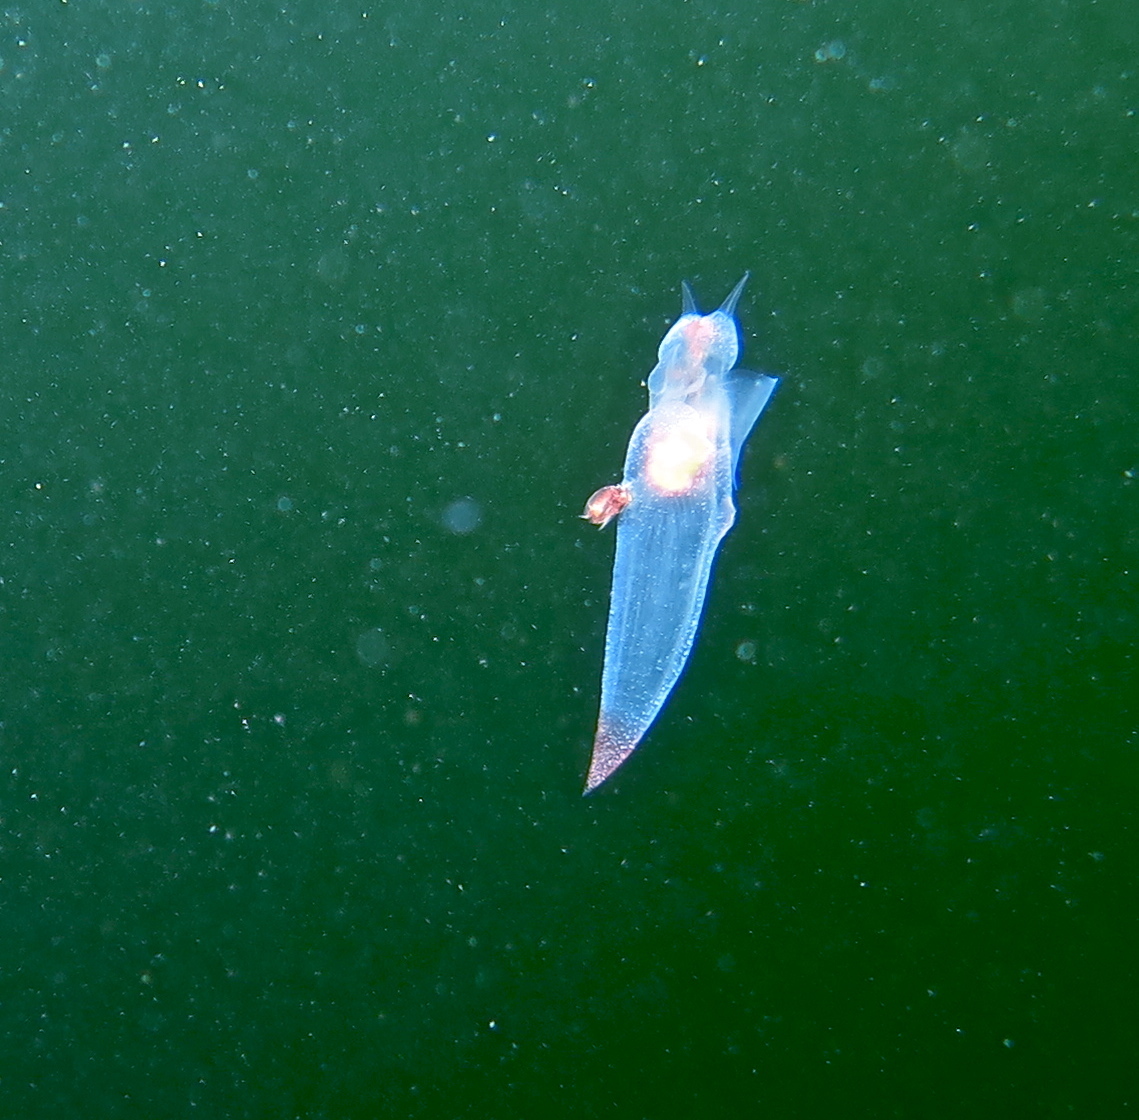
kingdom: Animalia
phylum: Mollusca
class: Gastropoda
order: Pteropoda
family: Clionidae
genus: Clione
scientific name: Clione limacina
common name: Common clione
